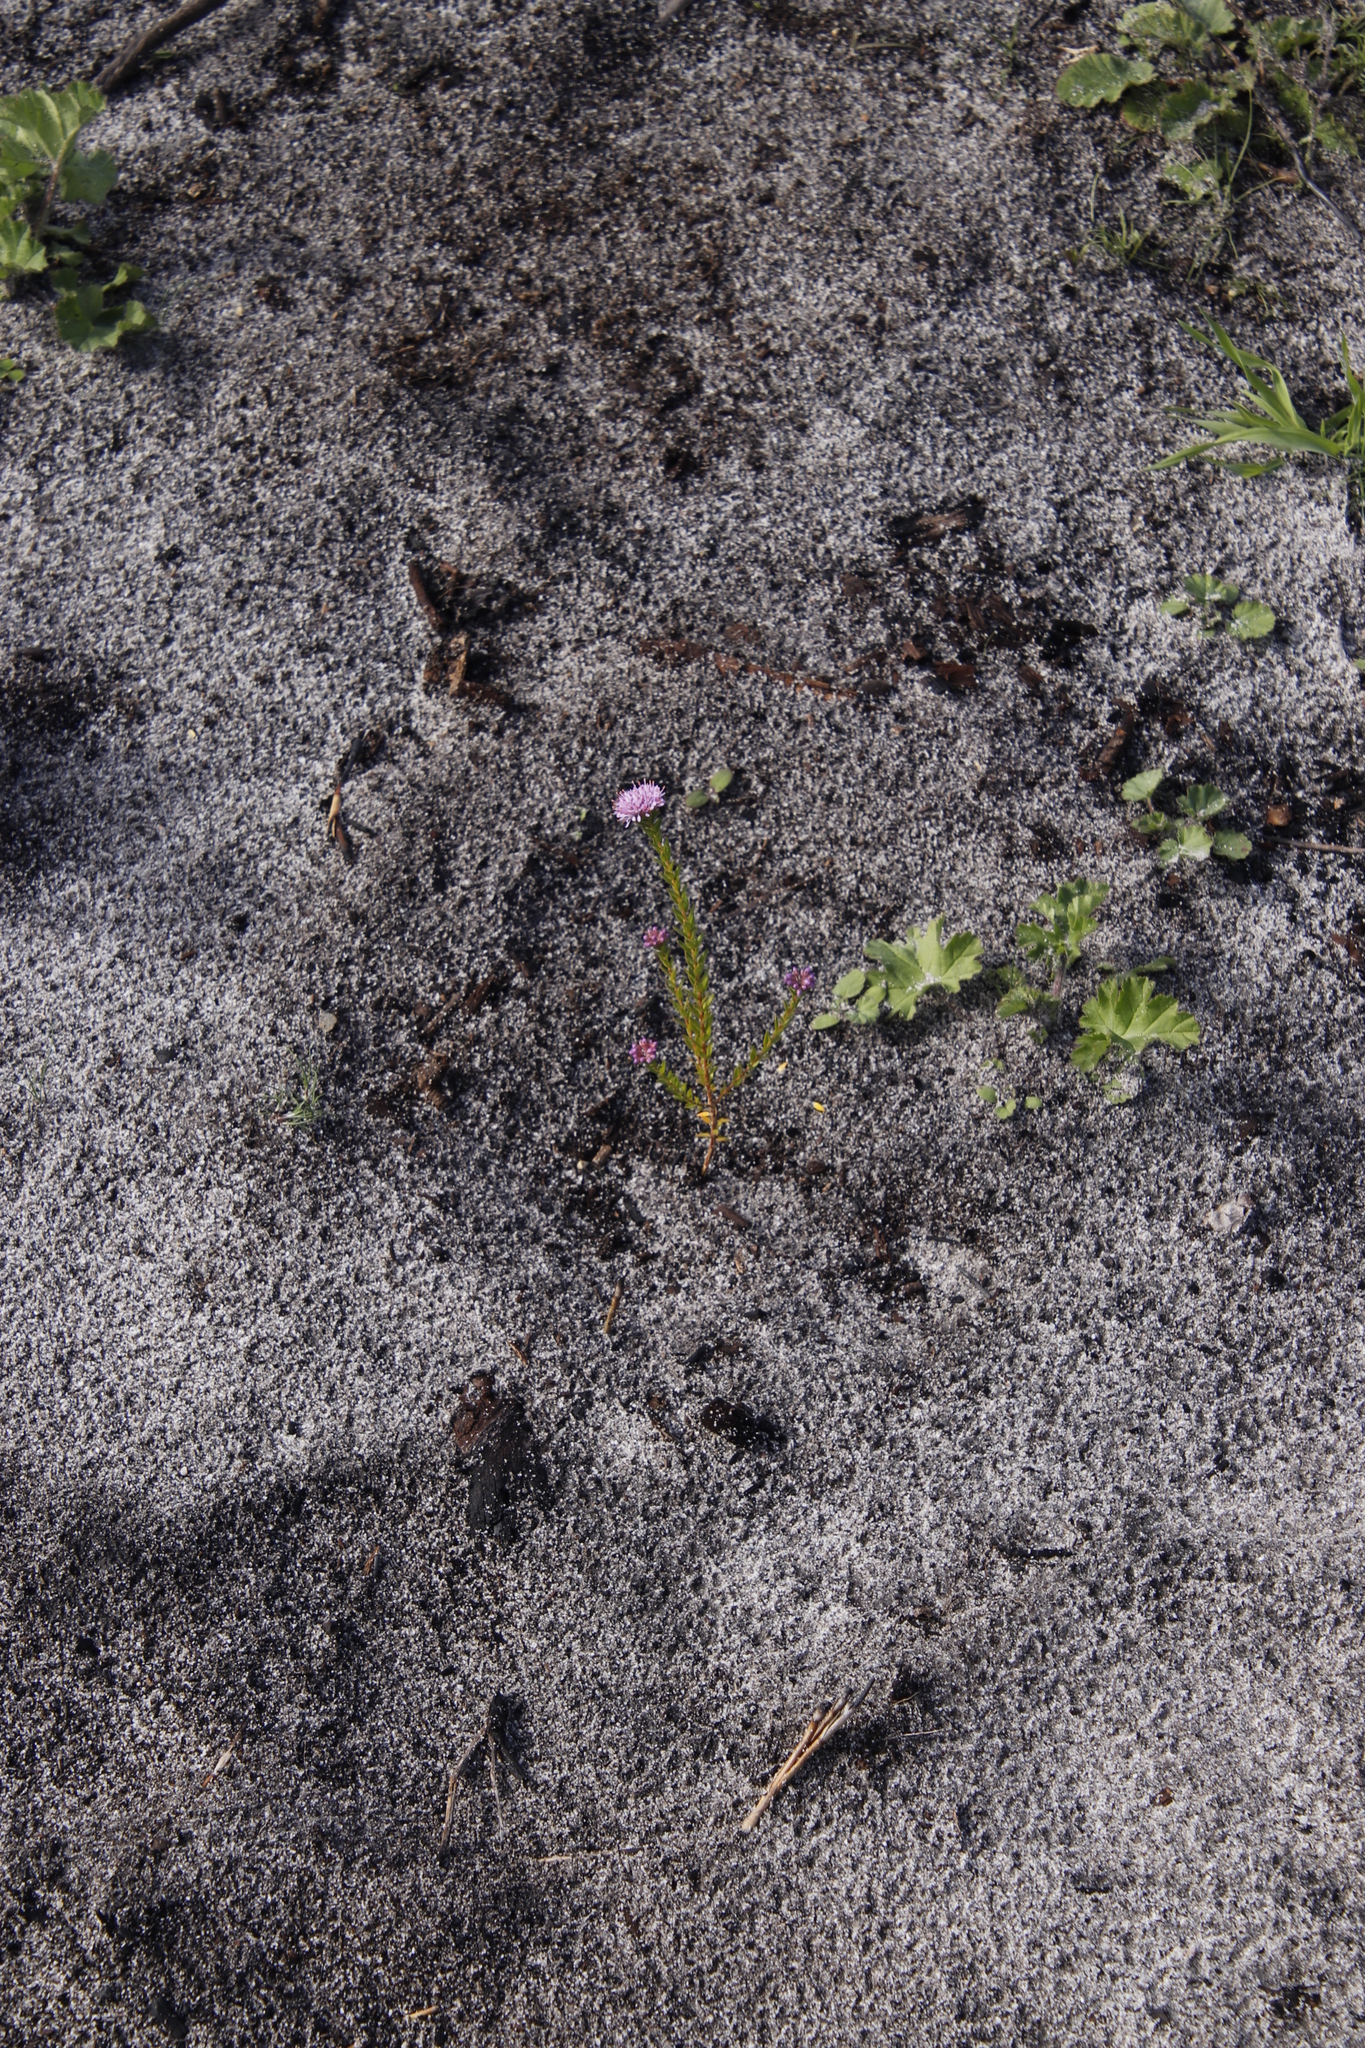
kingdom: Plantae
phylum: Tracheophyta
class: Magnoliopsida
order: Sapindales
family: Rutaceae
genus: Agathosma
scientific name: Agathosma glabrata
